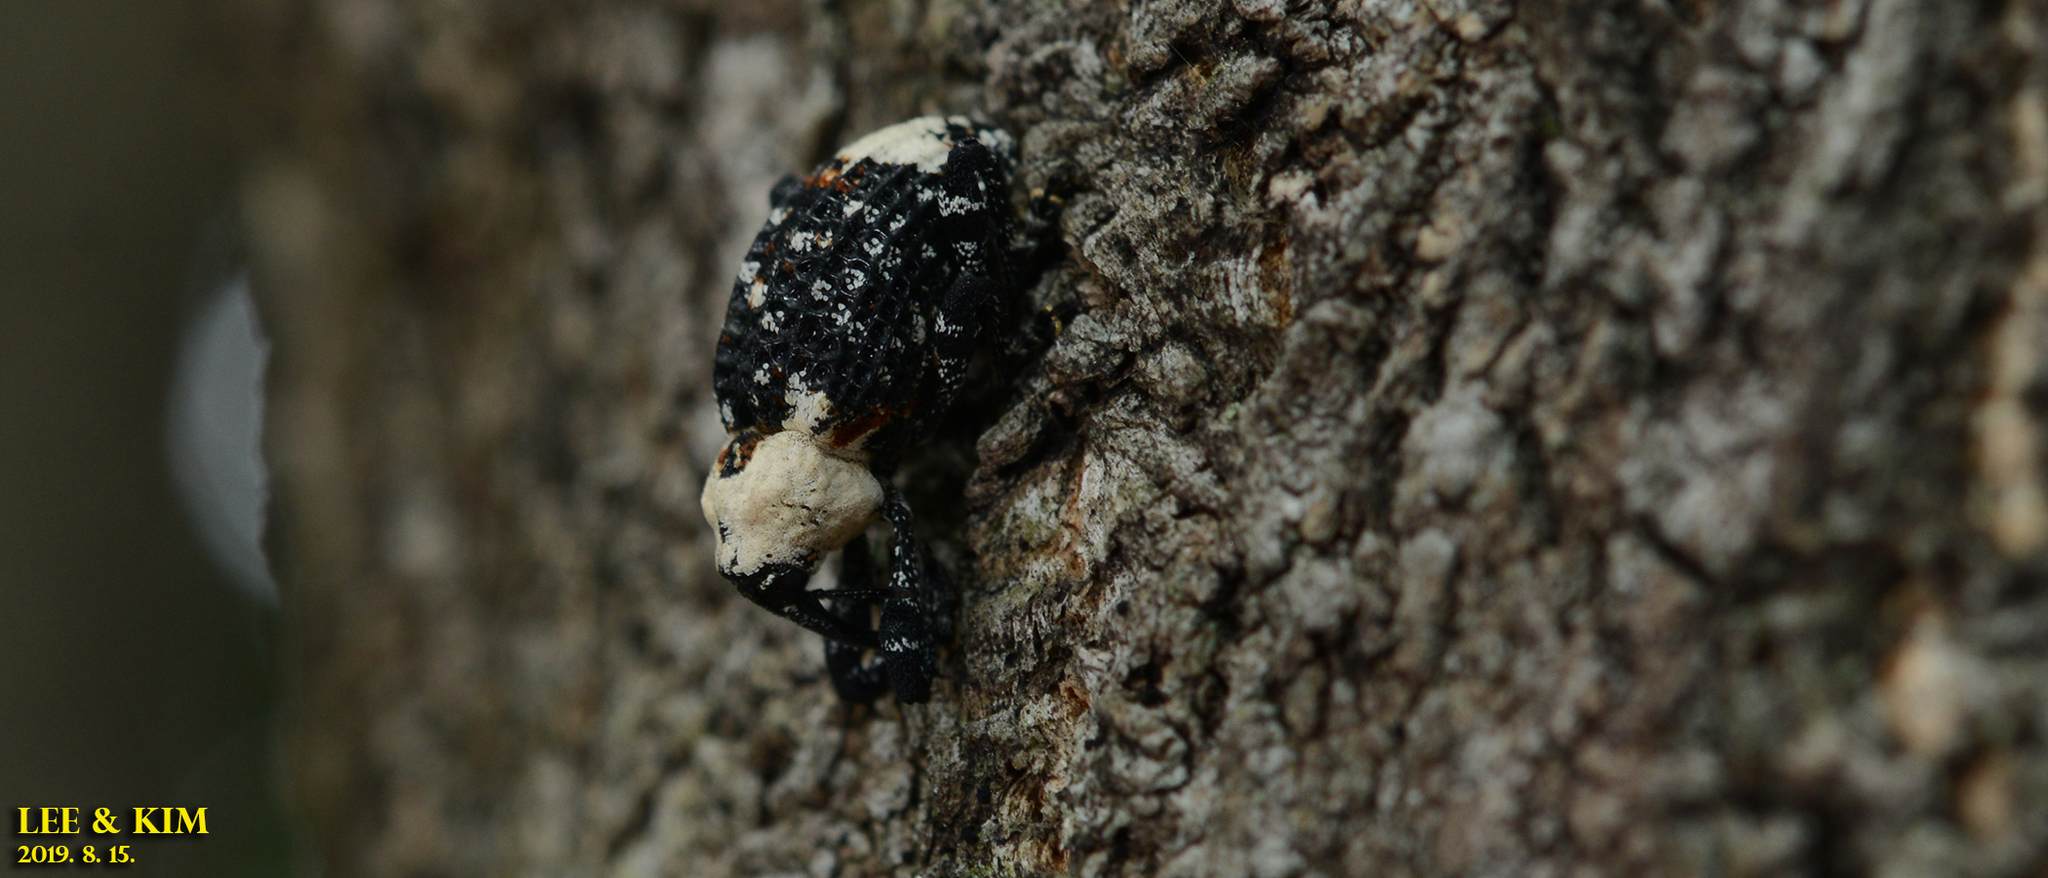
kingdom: Animalia
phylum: Arthropoda
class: Insecta
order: Coleoptera
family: Curculionidae
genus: Eucryptorrhynchus
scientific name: Eucryptorrhynchus brandti
